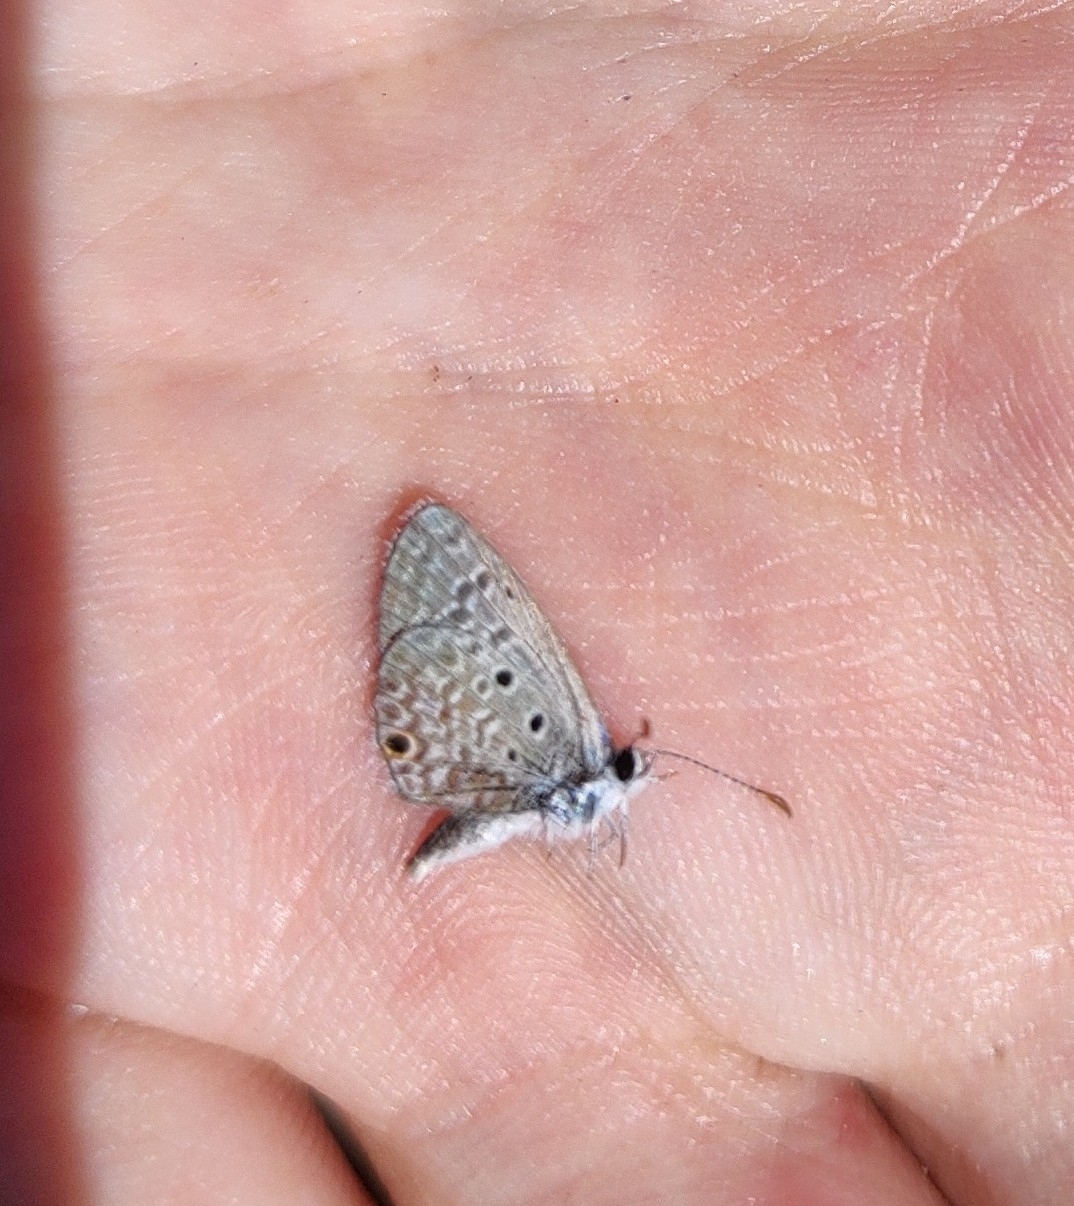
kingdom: Animalia
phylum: Arthropoda
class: Insecta
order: Lepidoptera
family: Lycaenidae
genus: Hemiargus
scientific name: Hemiargus hanno
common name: Common blue
